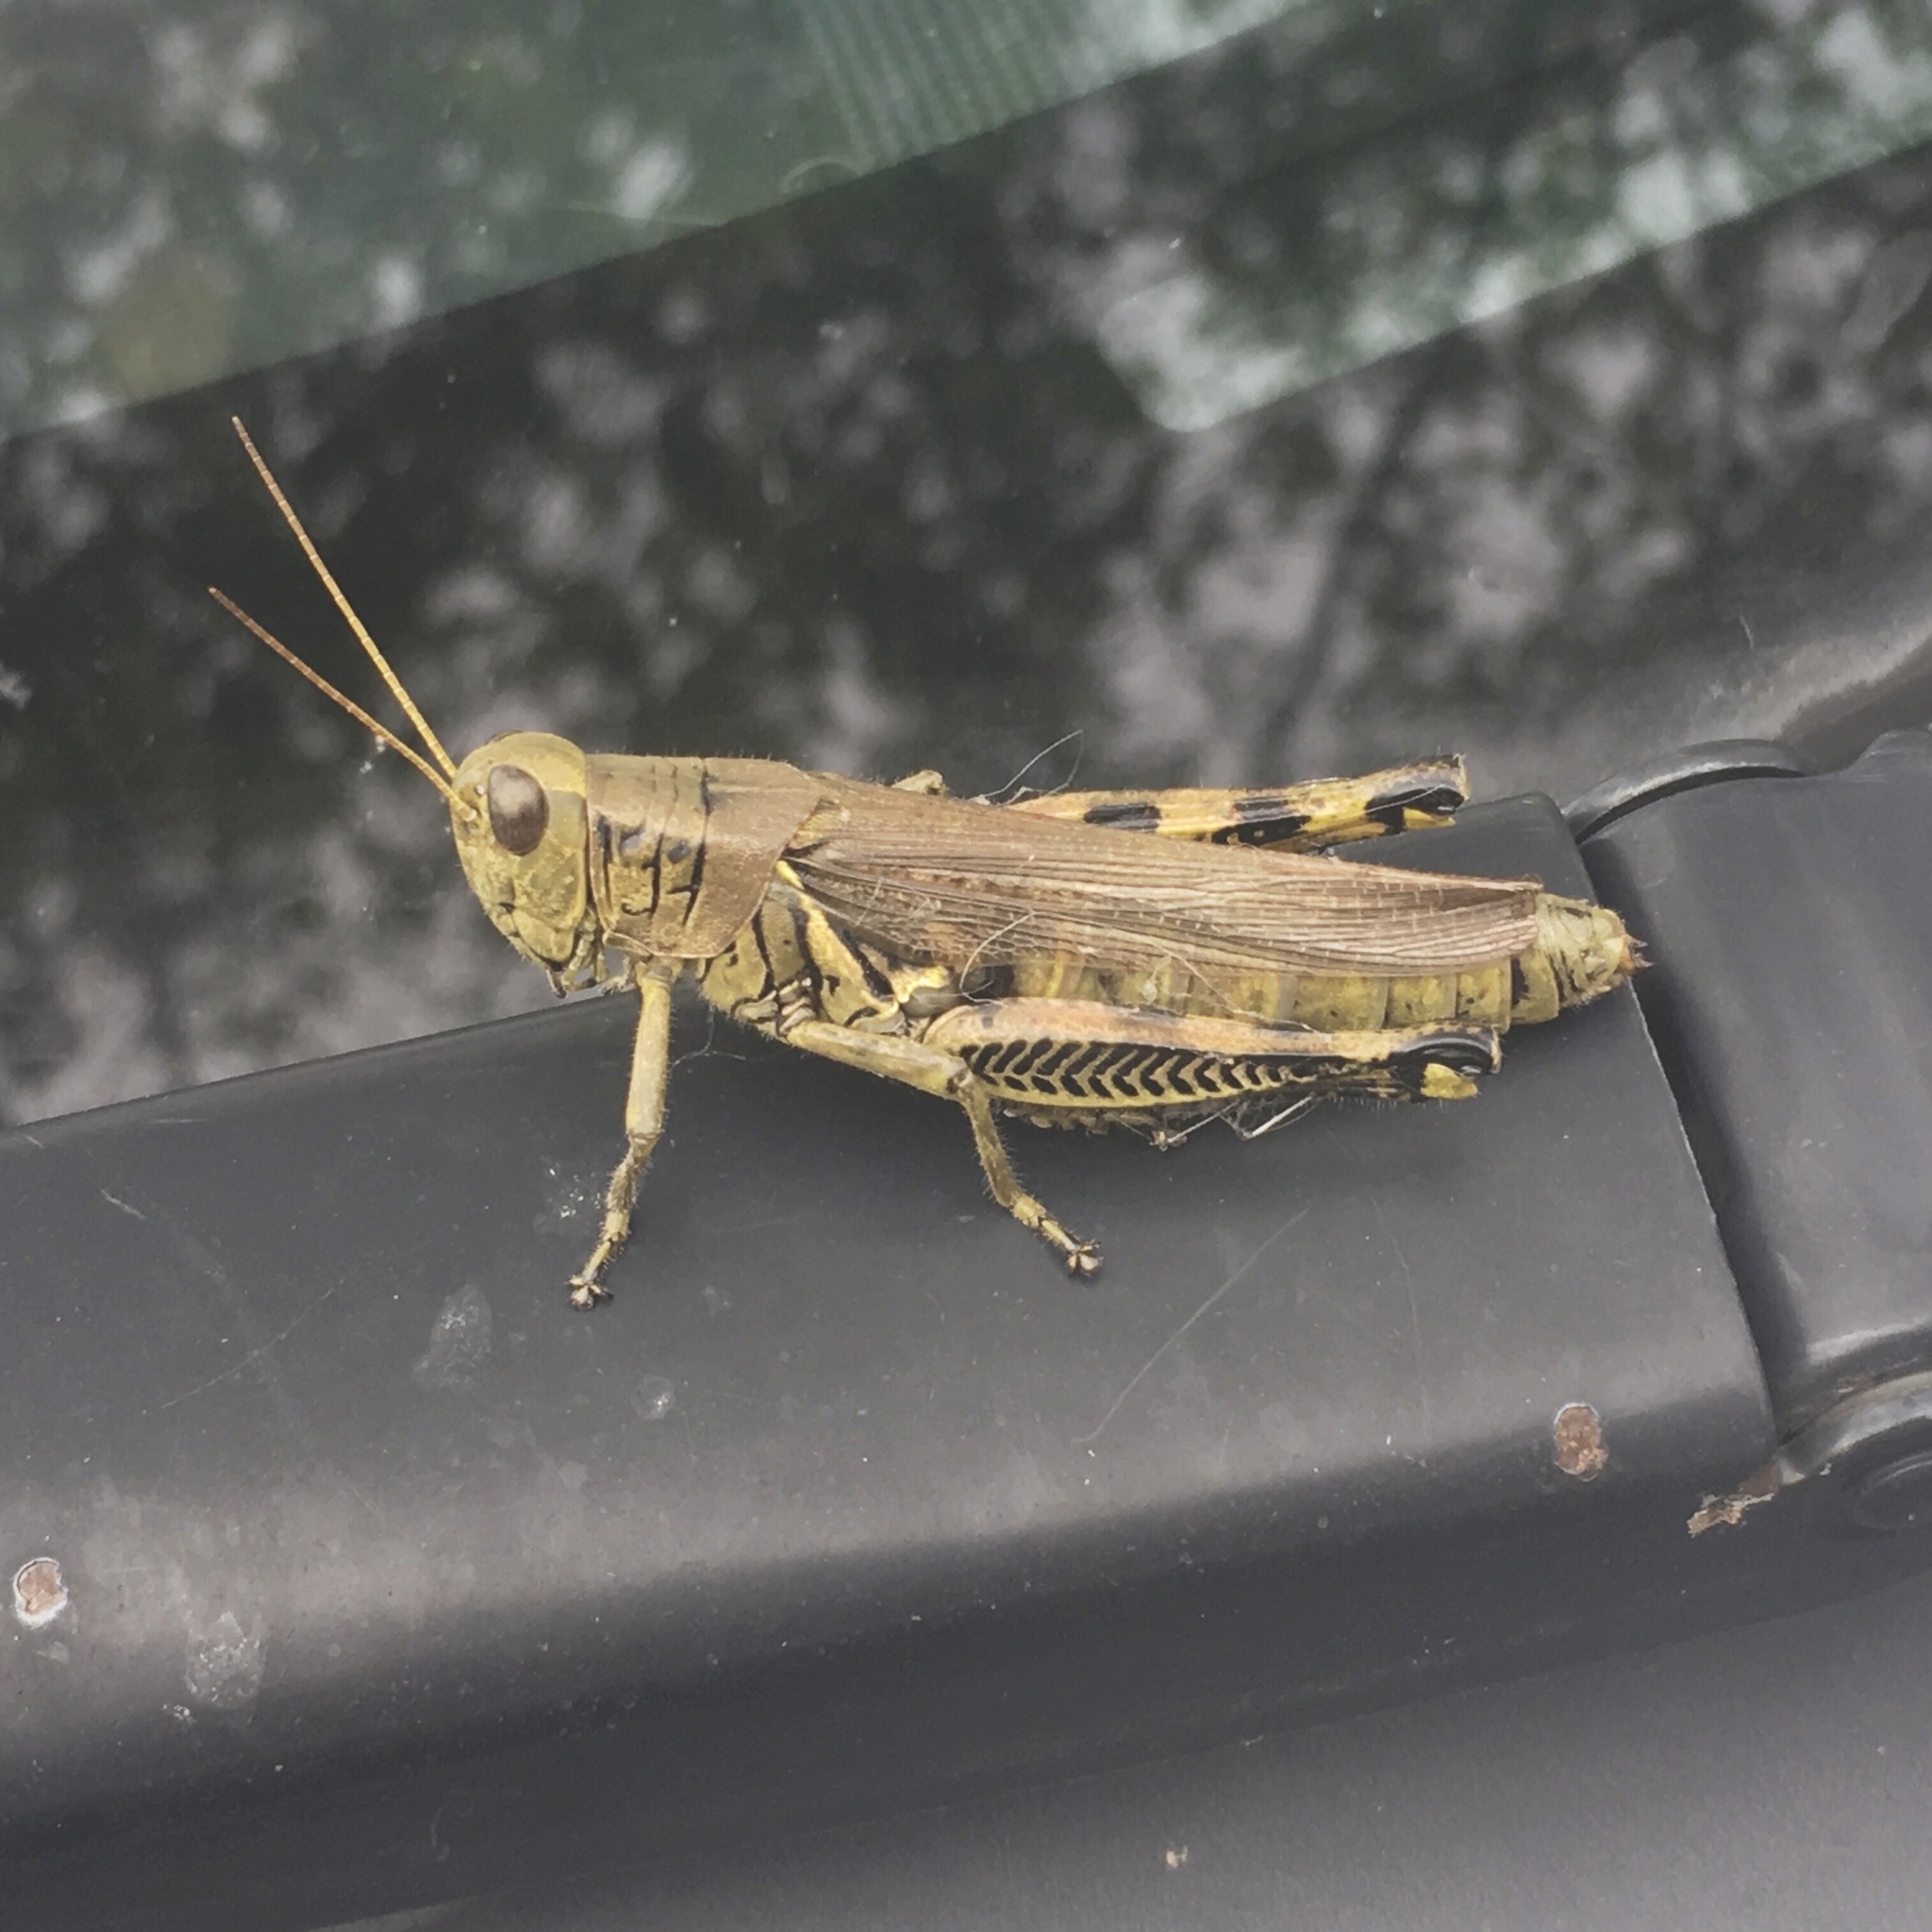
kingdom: Animalia
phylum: Arthropoda
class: Insecta
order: Orthoptera
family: Acrididae
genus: Melanoplus
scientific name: Melanoplus differentialis
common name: Differential grasshopper
